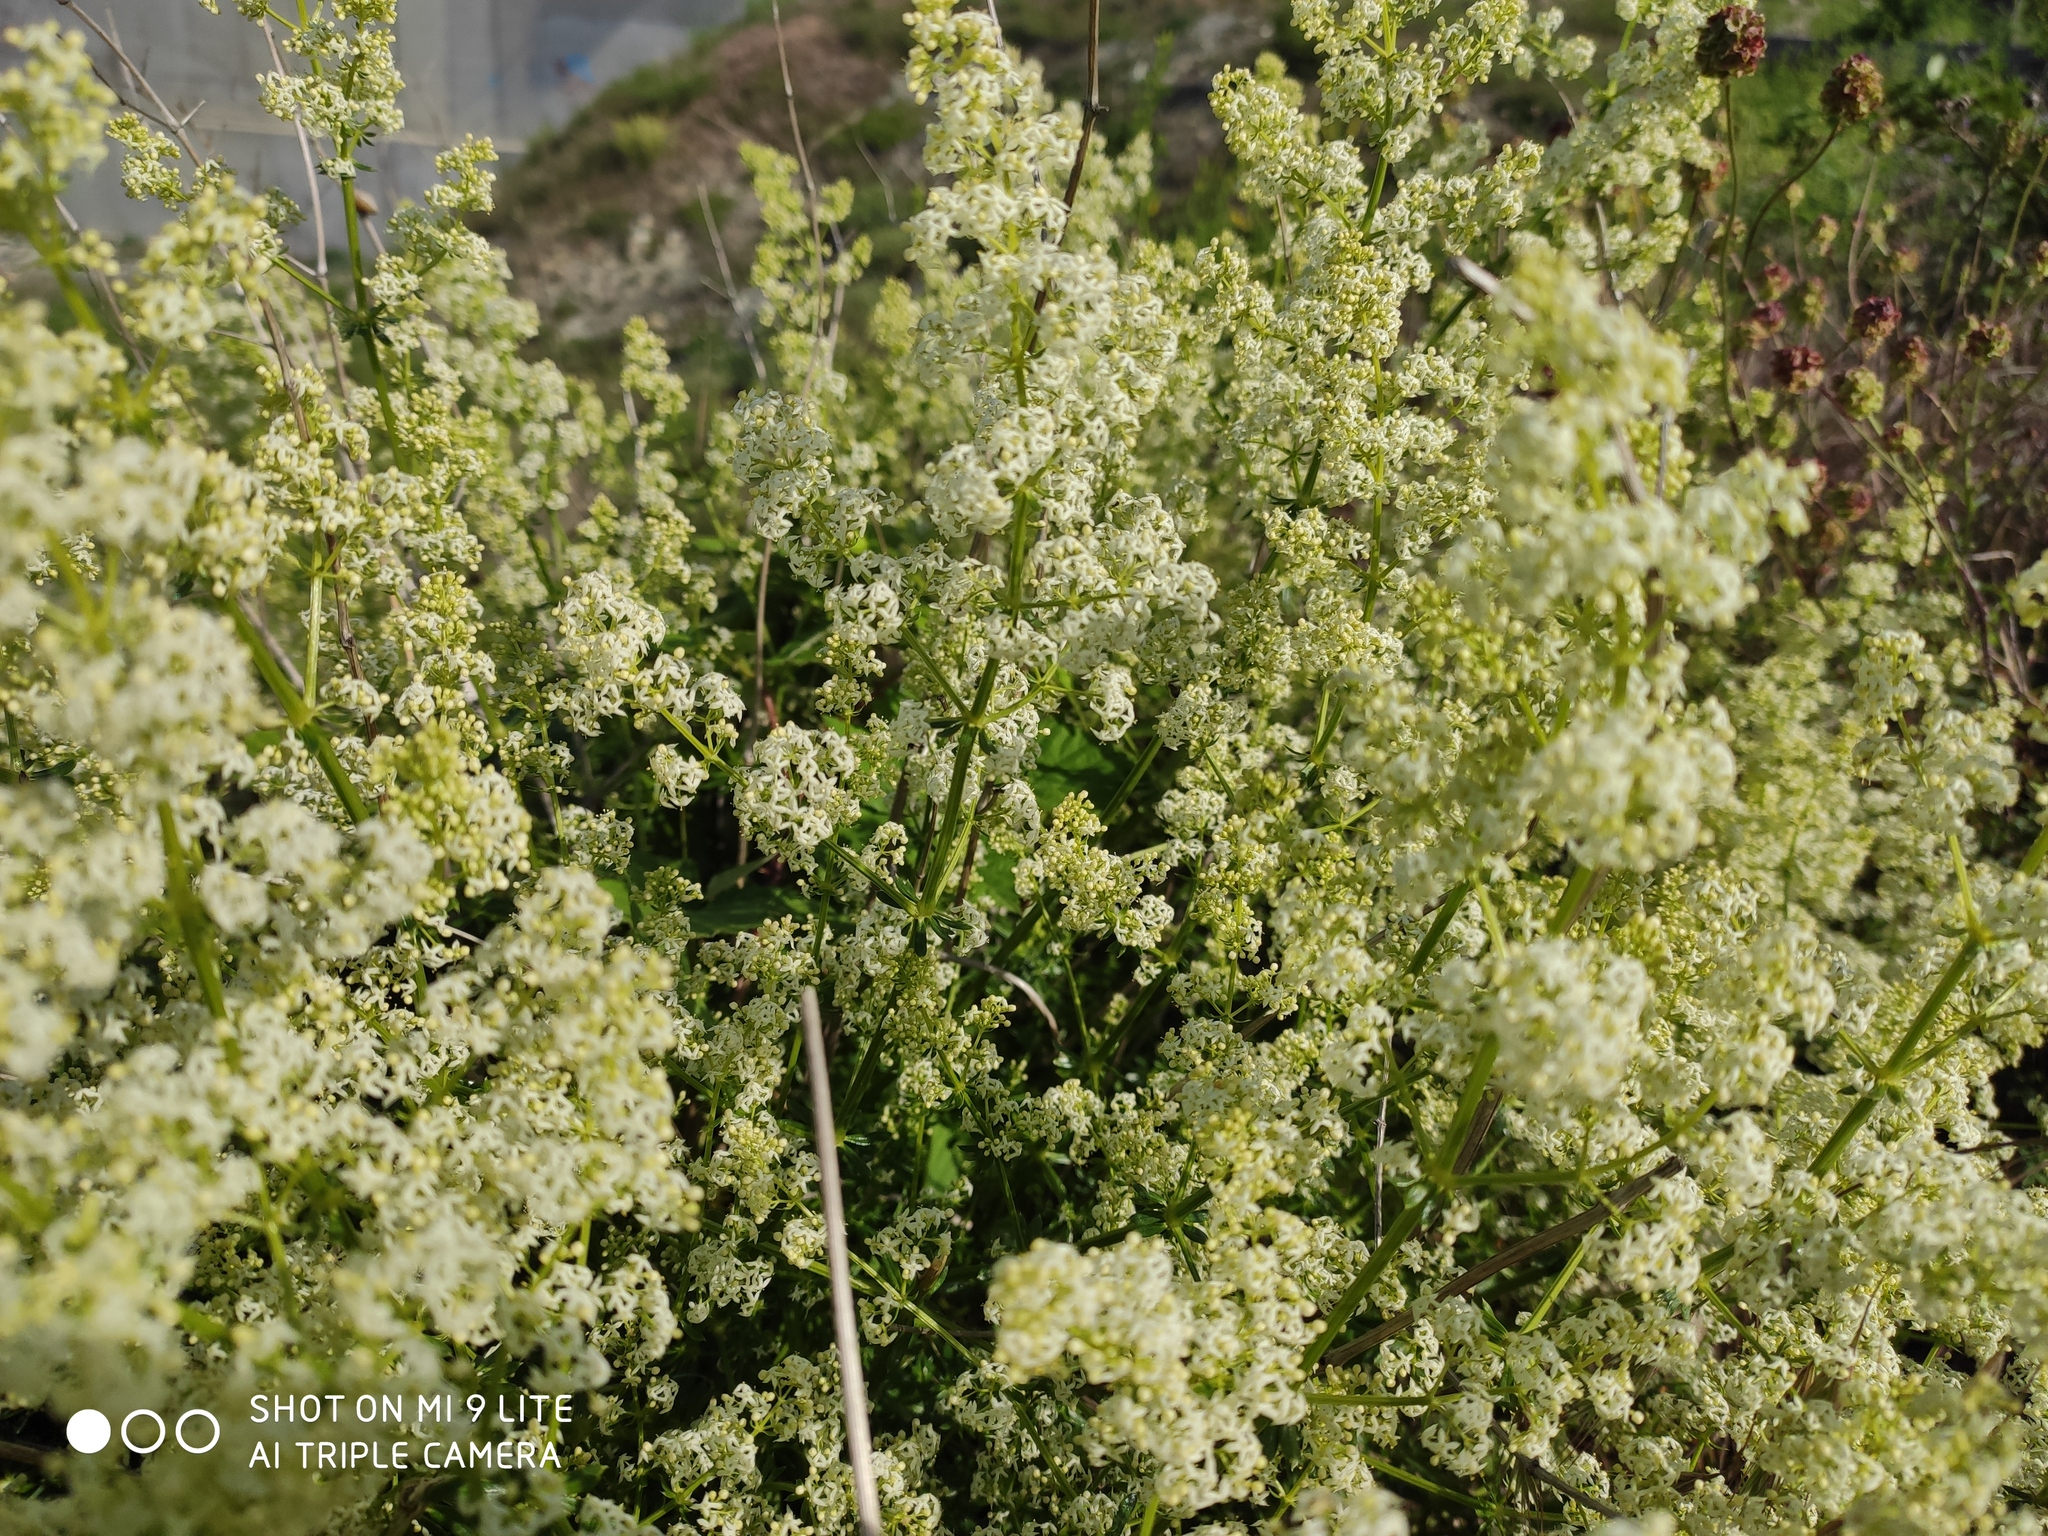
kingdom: Plantae
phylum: Tracheophyta
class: Magnoliopsida
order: Gentianales
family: Rubiaceae
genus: Galium
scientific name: Galium mollugo
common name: Hedge bedstraw
